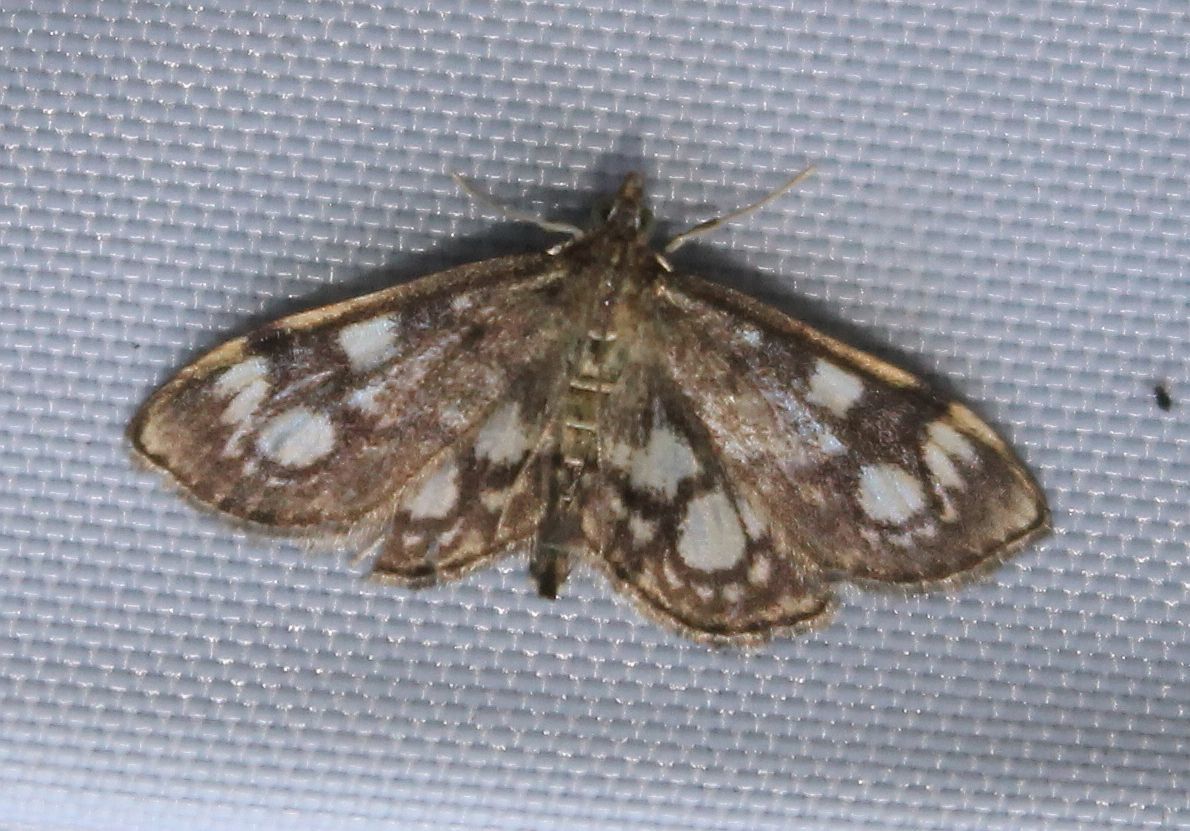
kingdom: Animalia
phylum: Arthropoda
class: Insecta
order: Lepidoptera
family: Crambidae
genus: Anania
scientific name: Anania coronata
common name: Elder pearl
